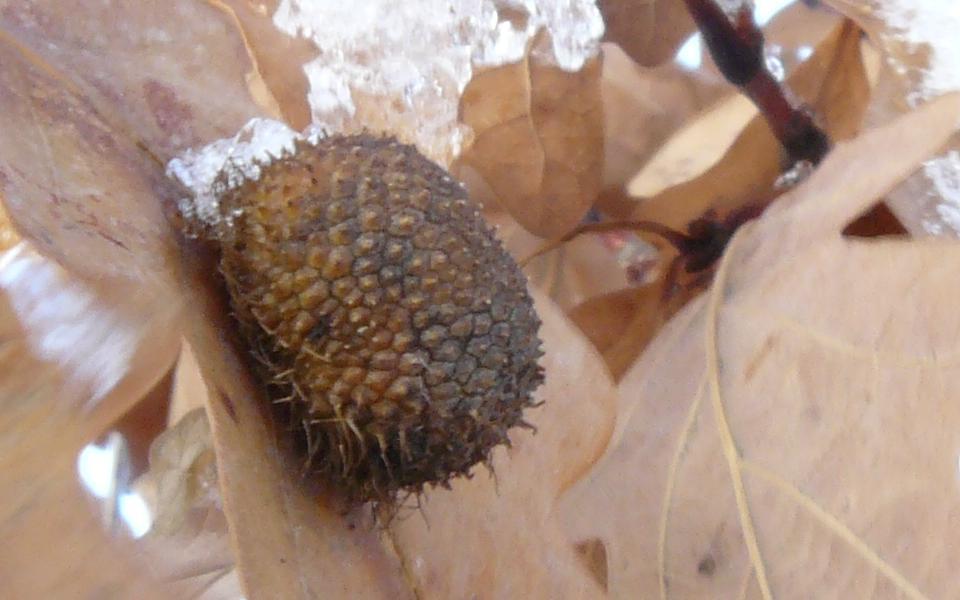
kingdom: Animalia
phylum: Arthropoda
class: Insecta
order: Hymenoptera
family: Cynipidae
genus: Acraspis
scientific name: Acraspis erinacei
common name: Hedgehog gall wasp
